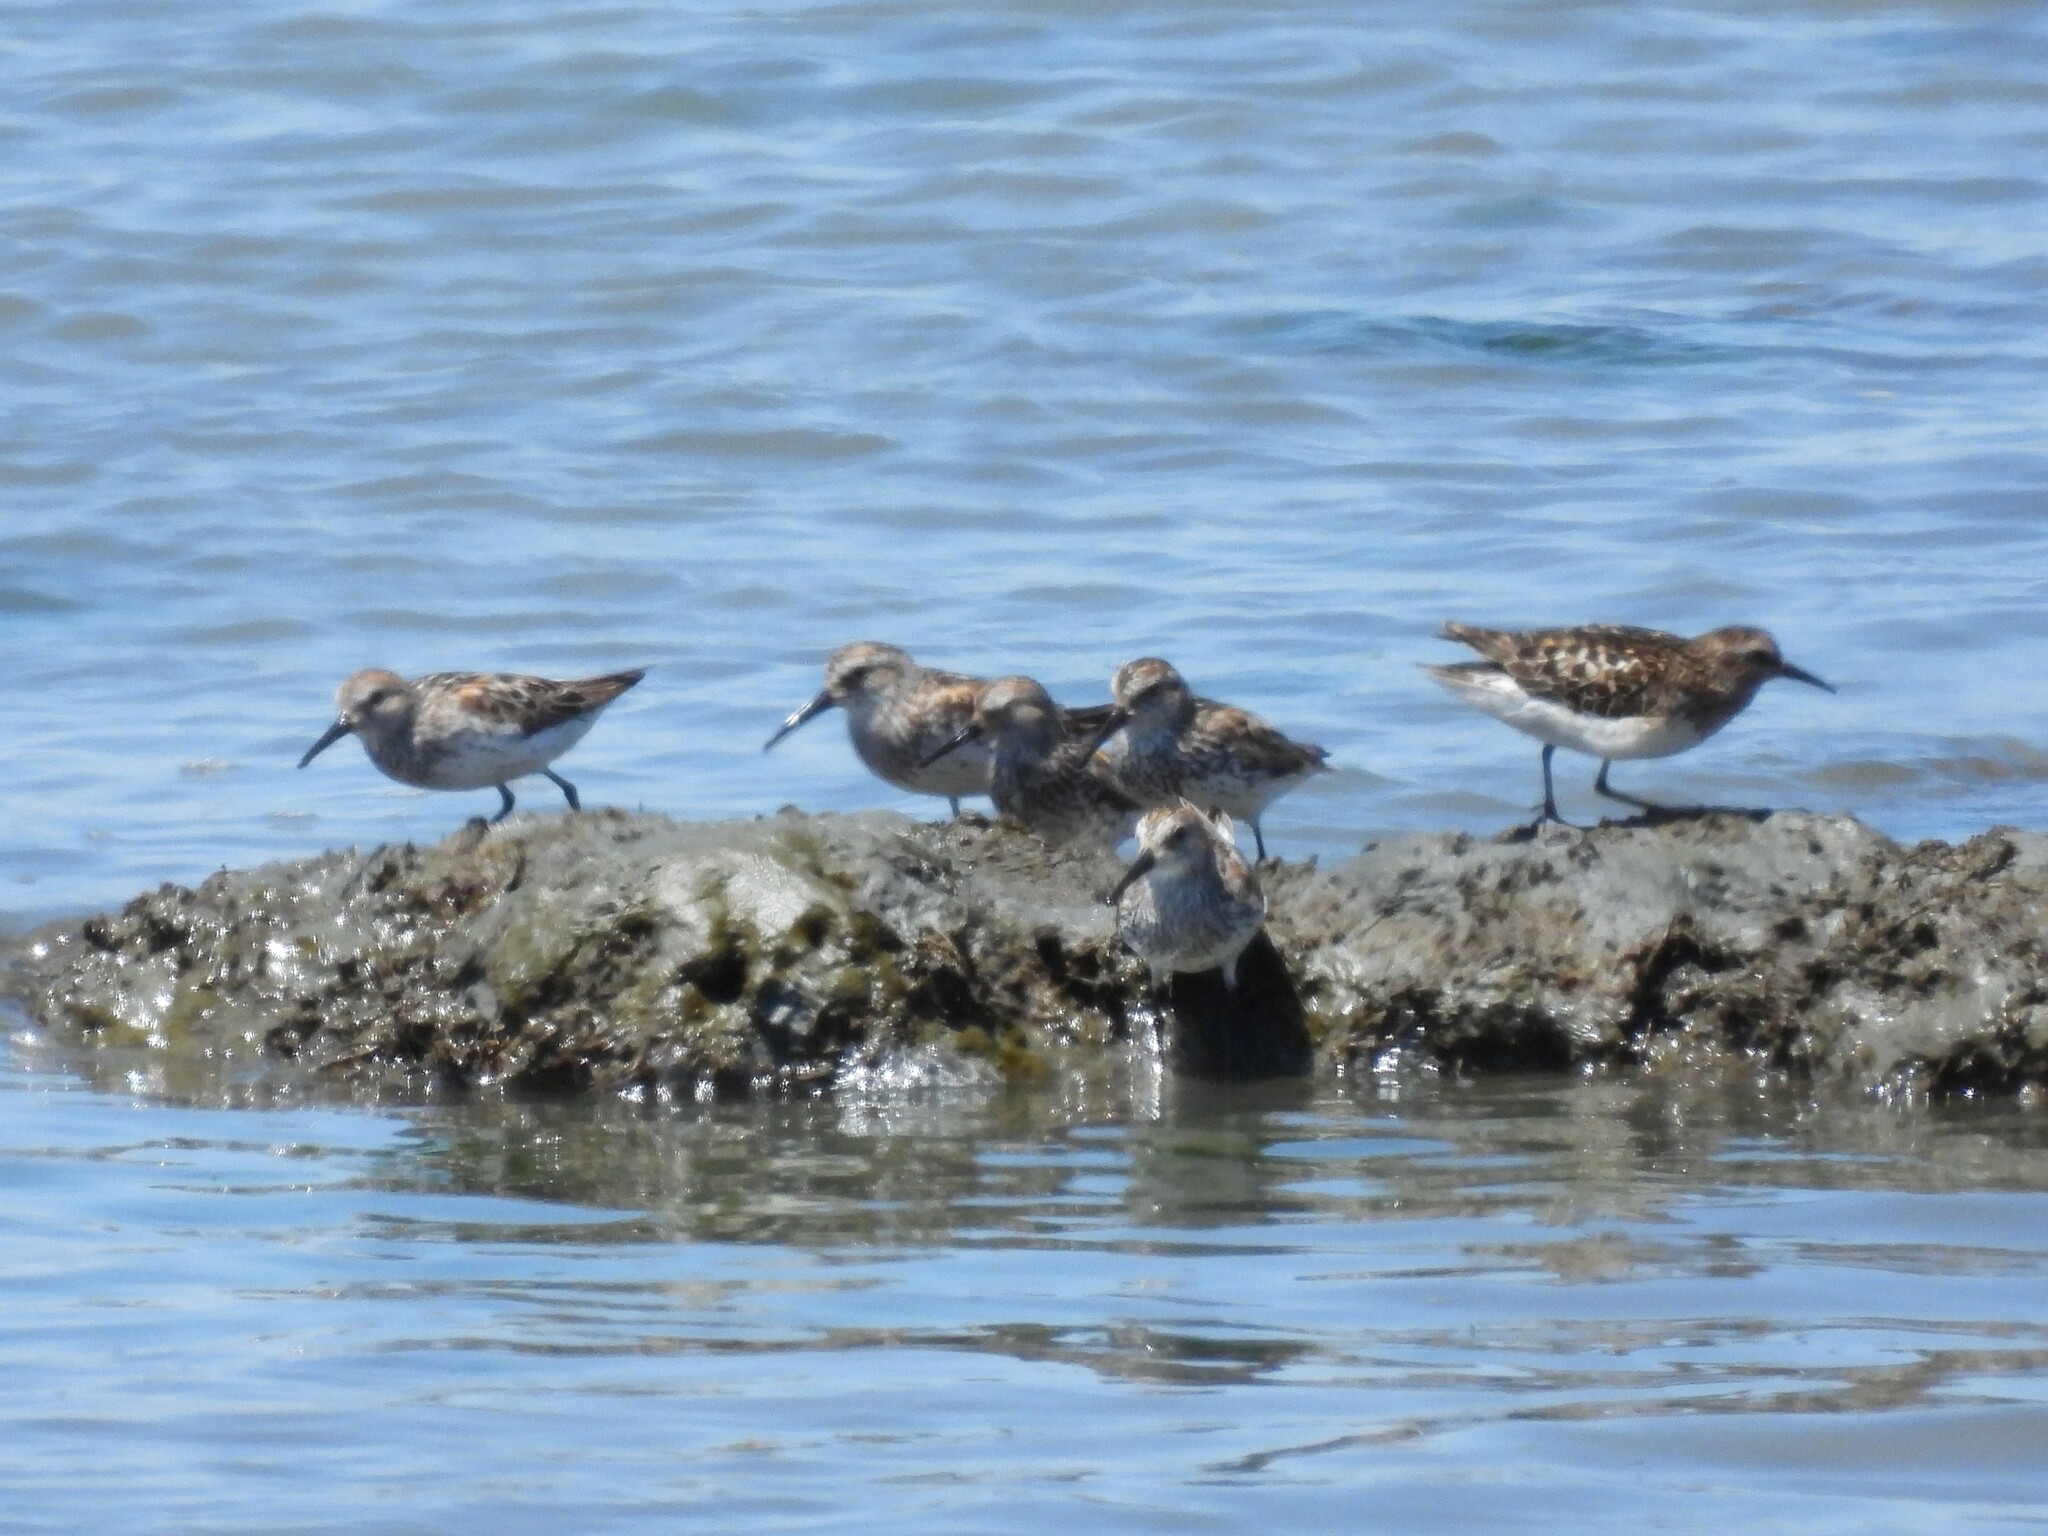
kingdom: Animalia
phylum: Chordata
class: Aves
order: Charadriiformes
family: Scolopacidae
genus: Calidris
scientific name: Calidris mauri
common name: Western sandpiper
